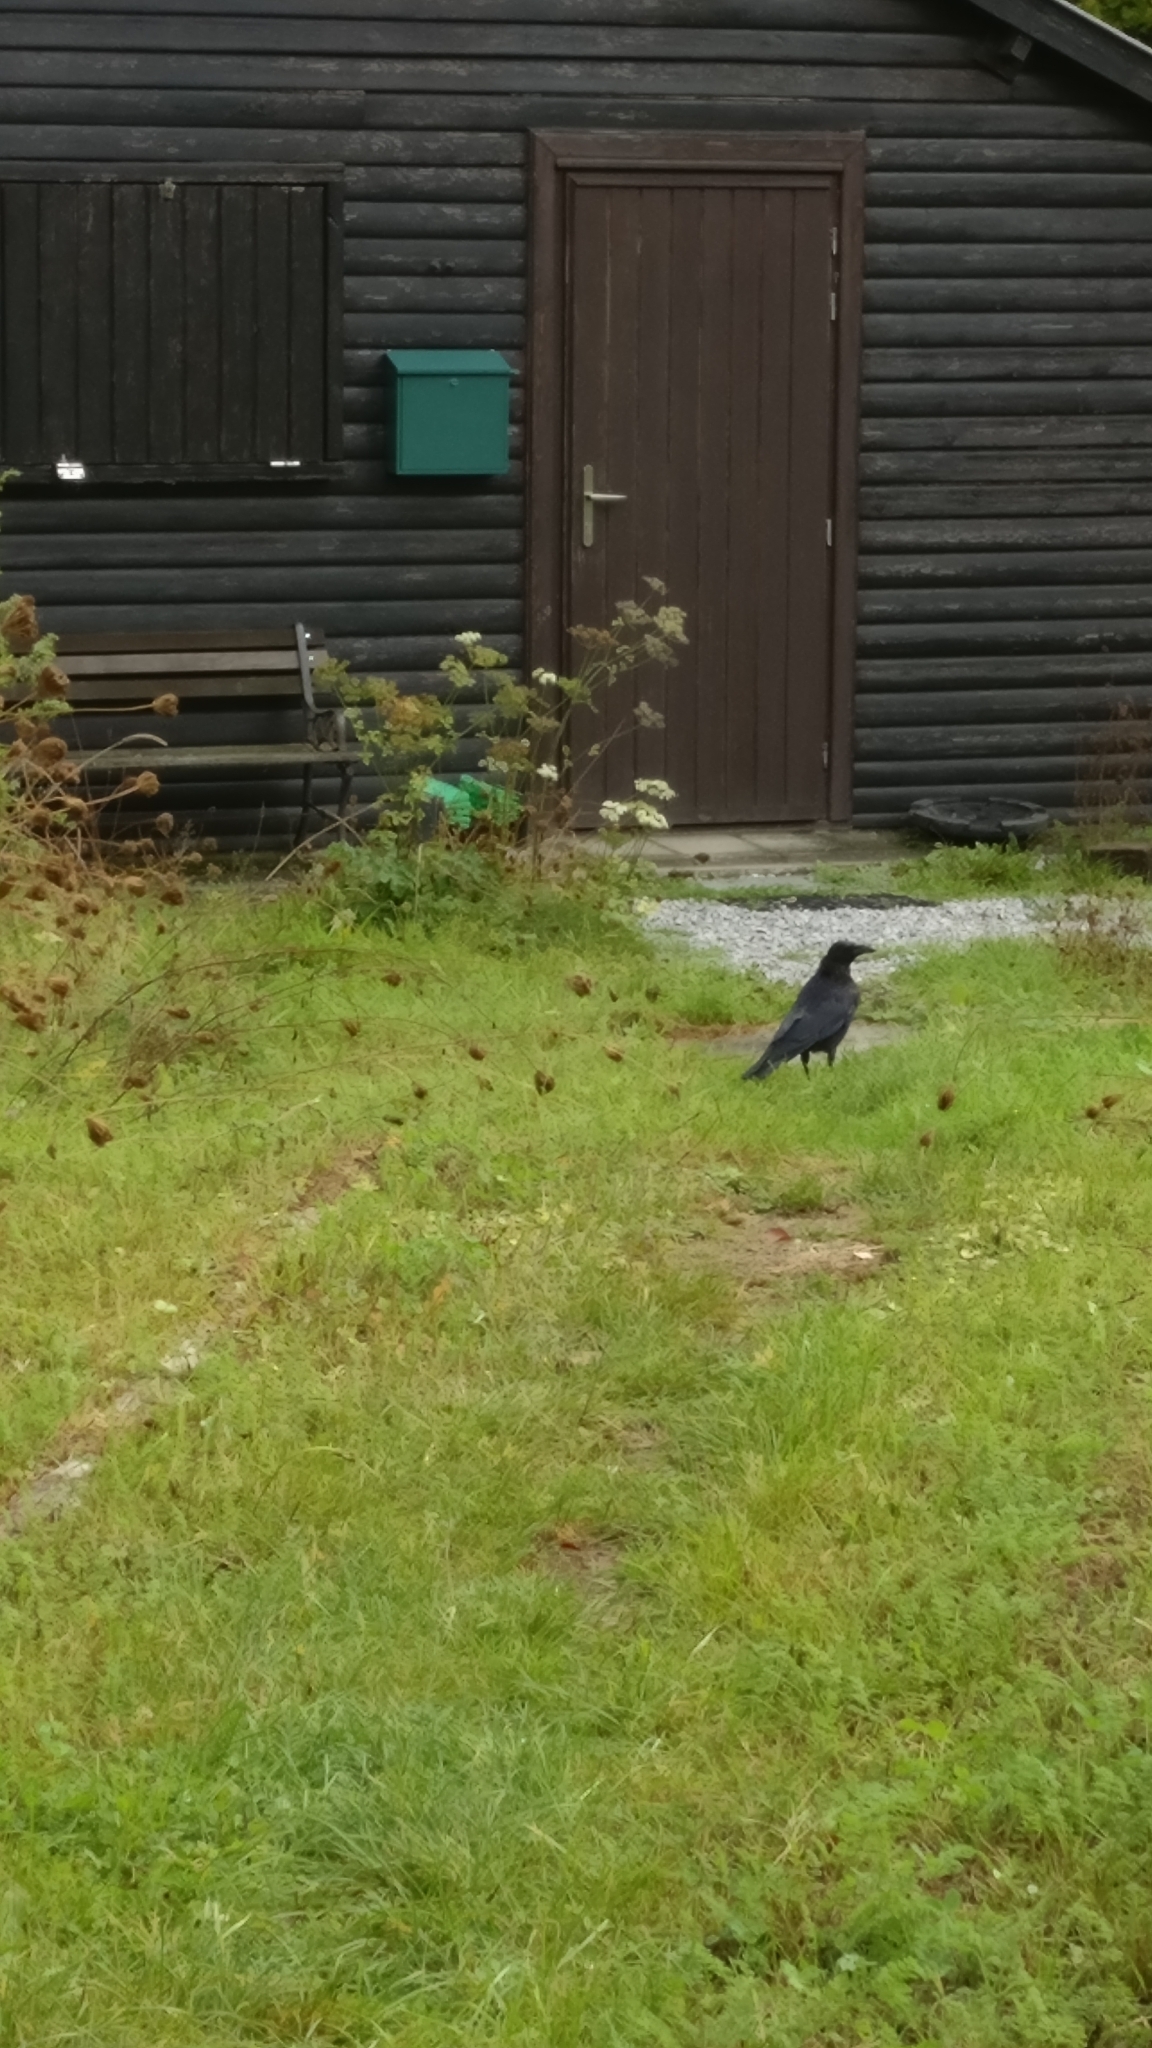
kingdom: Animalia
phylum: Chordata
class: Aves
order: Passeriformes
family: Corvidae
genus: Corvus
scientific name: Corvus corone
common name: Carrion crow
